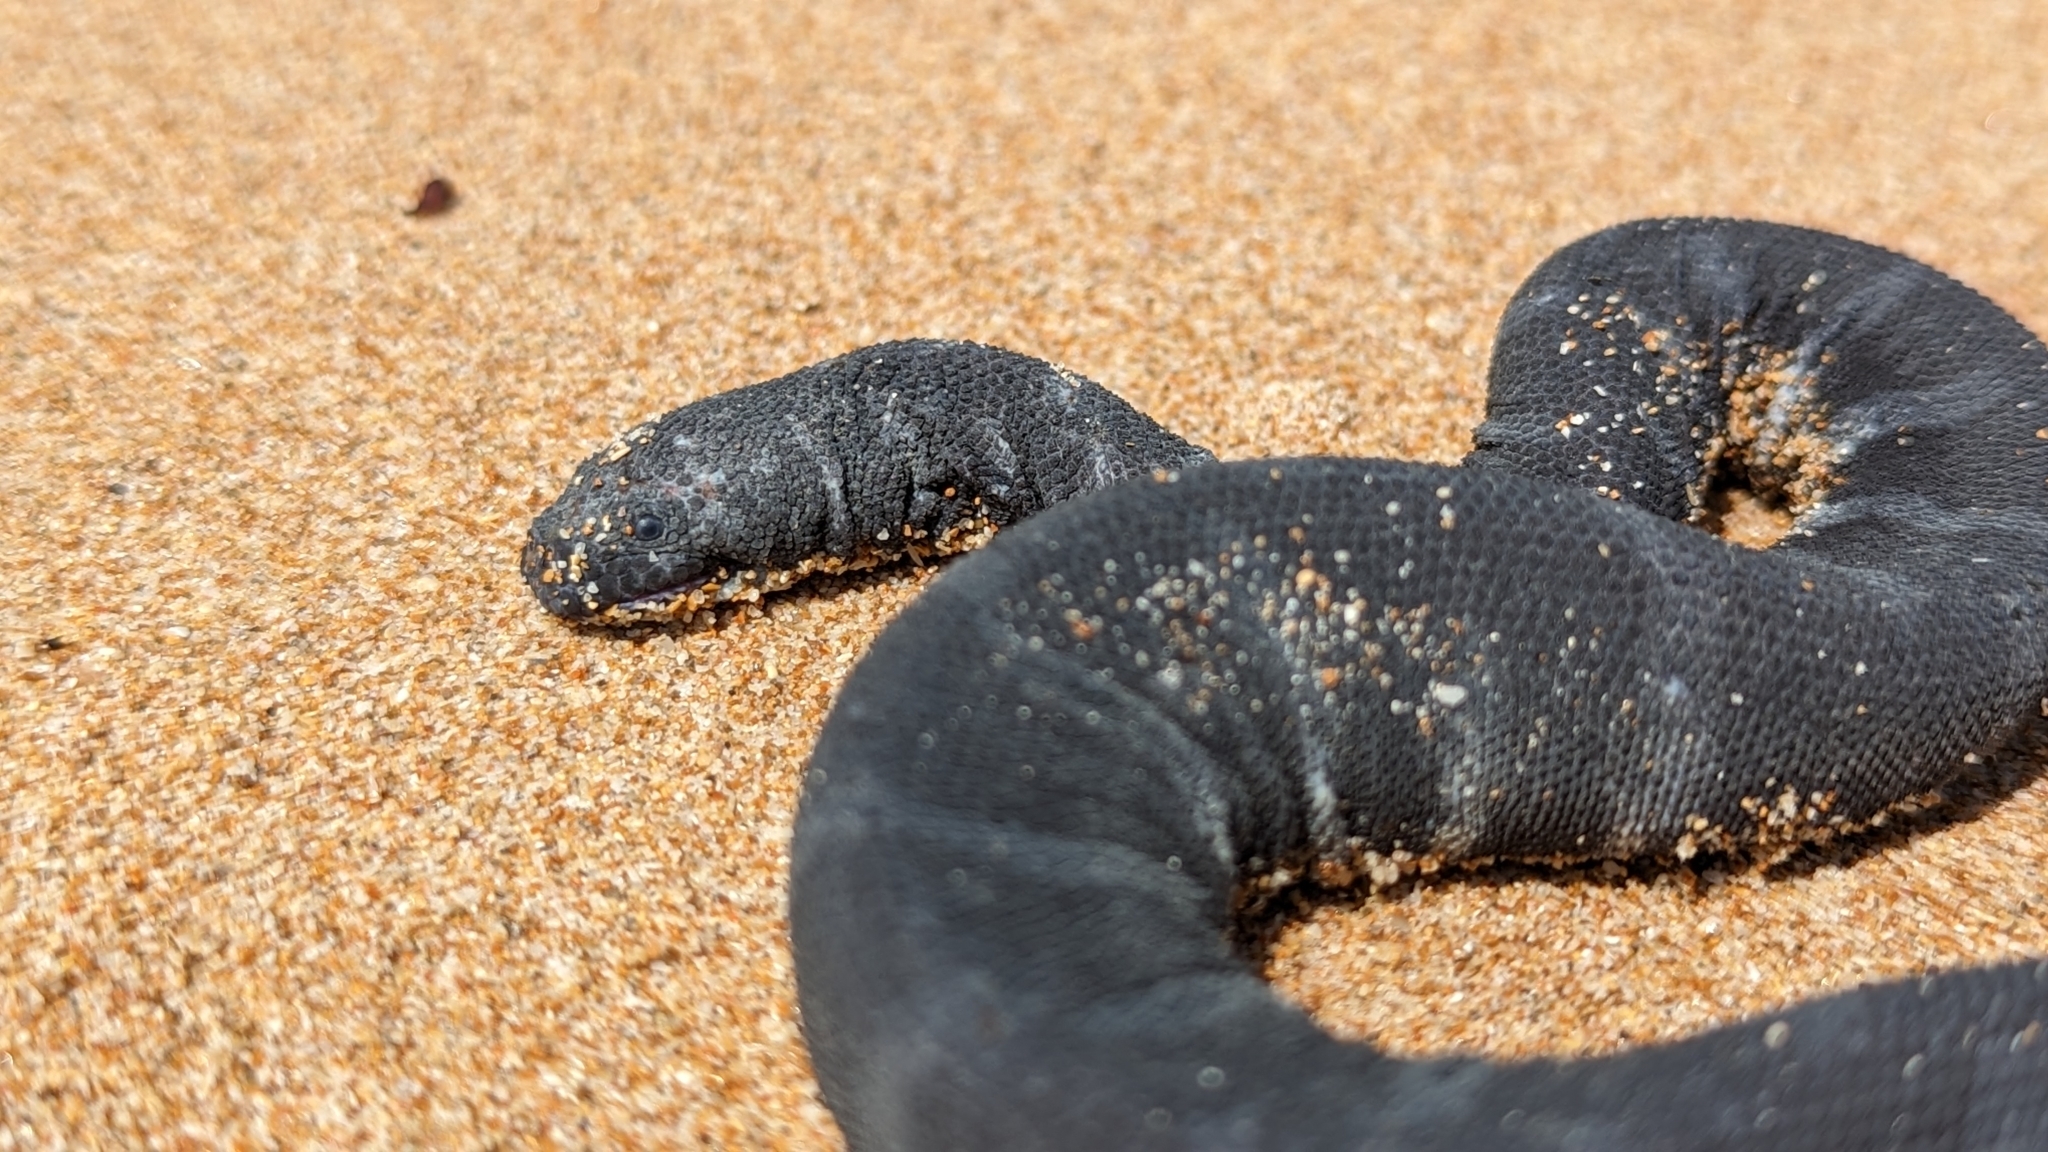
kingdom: Animalia
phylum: Chordata
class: Squamata
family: Acrochordidae
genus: Acrochordus
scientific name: Acrochordus granulatus
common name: Little filesnake
